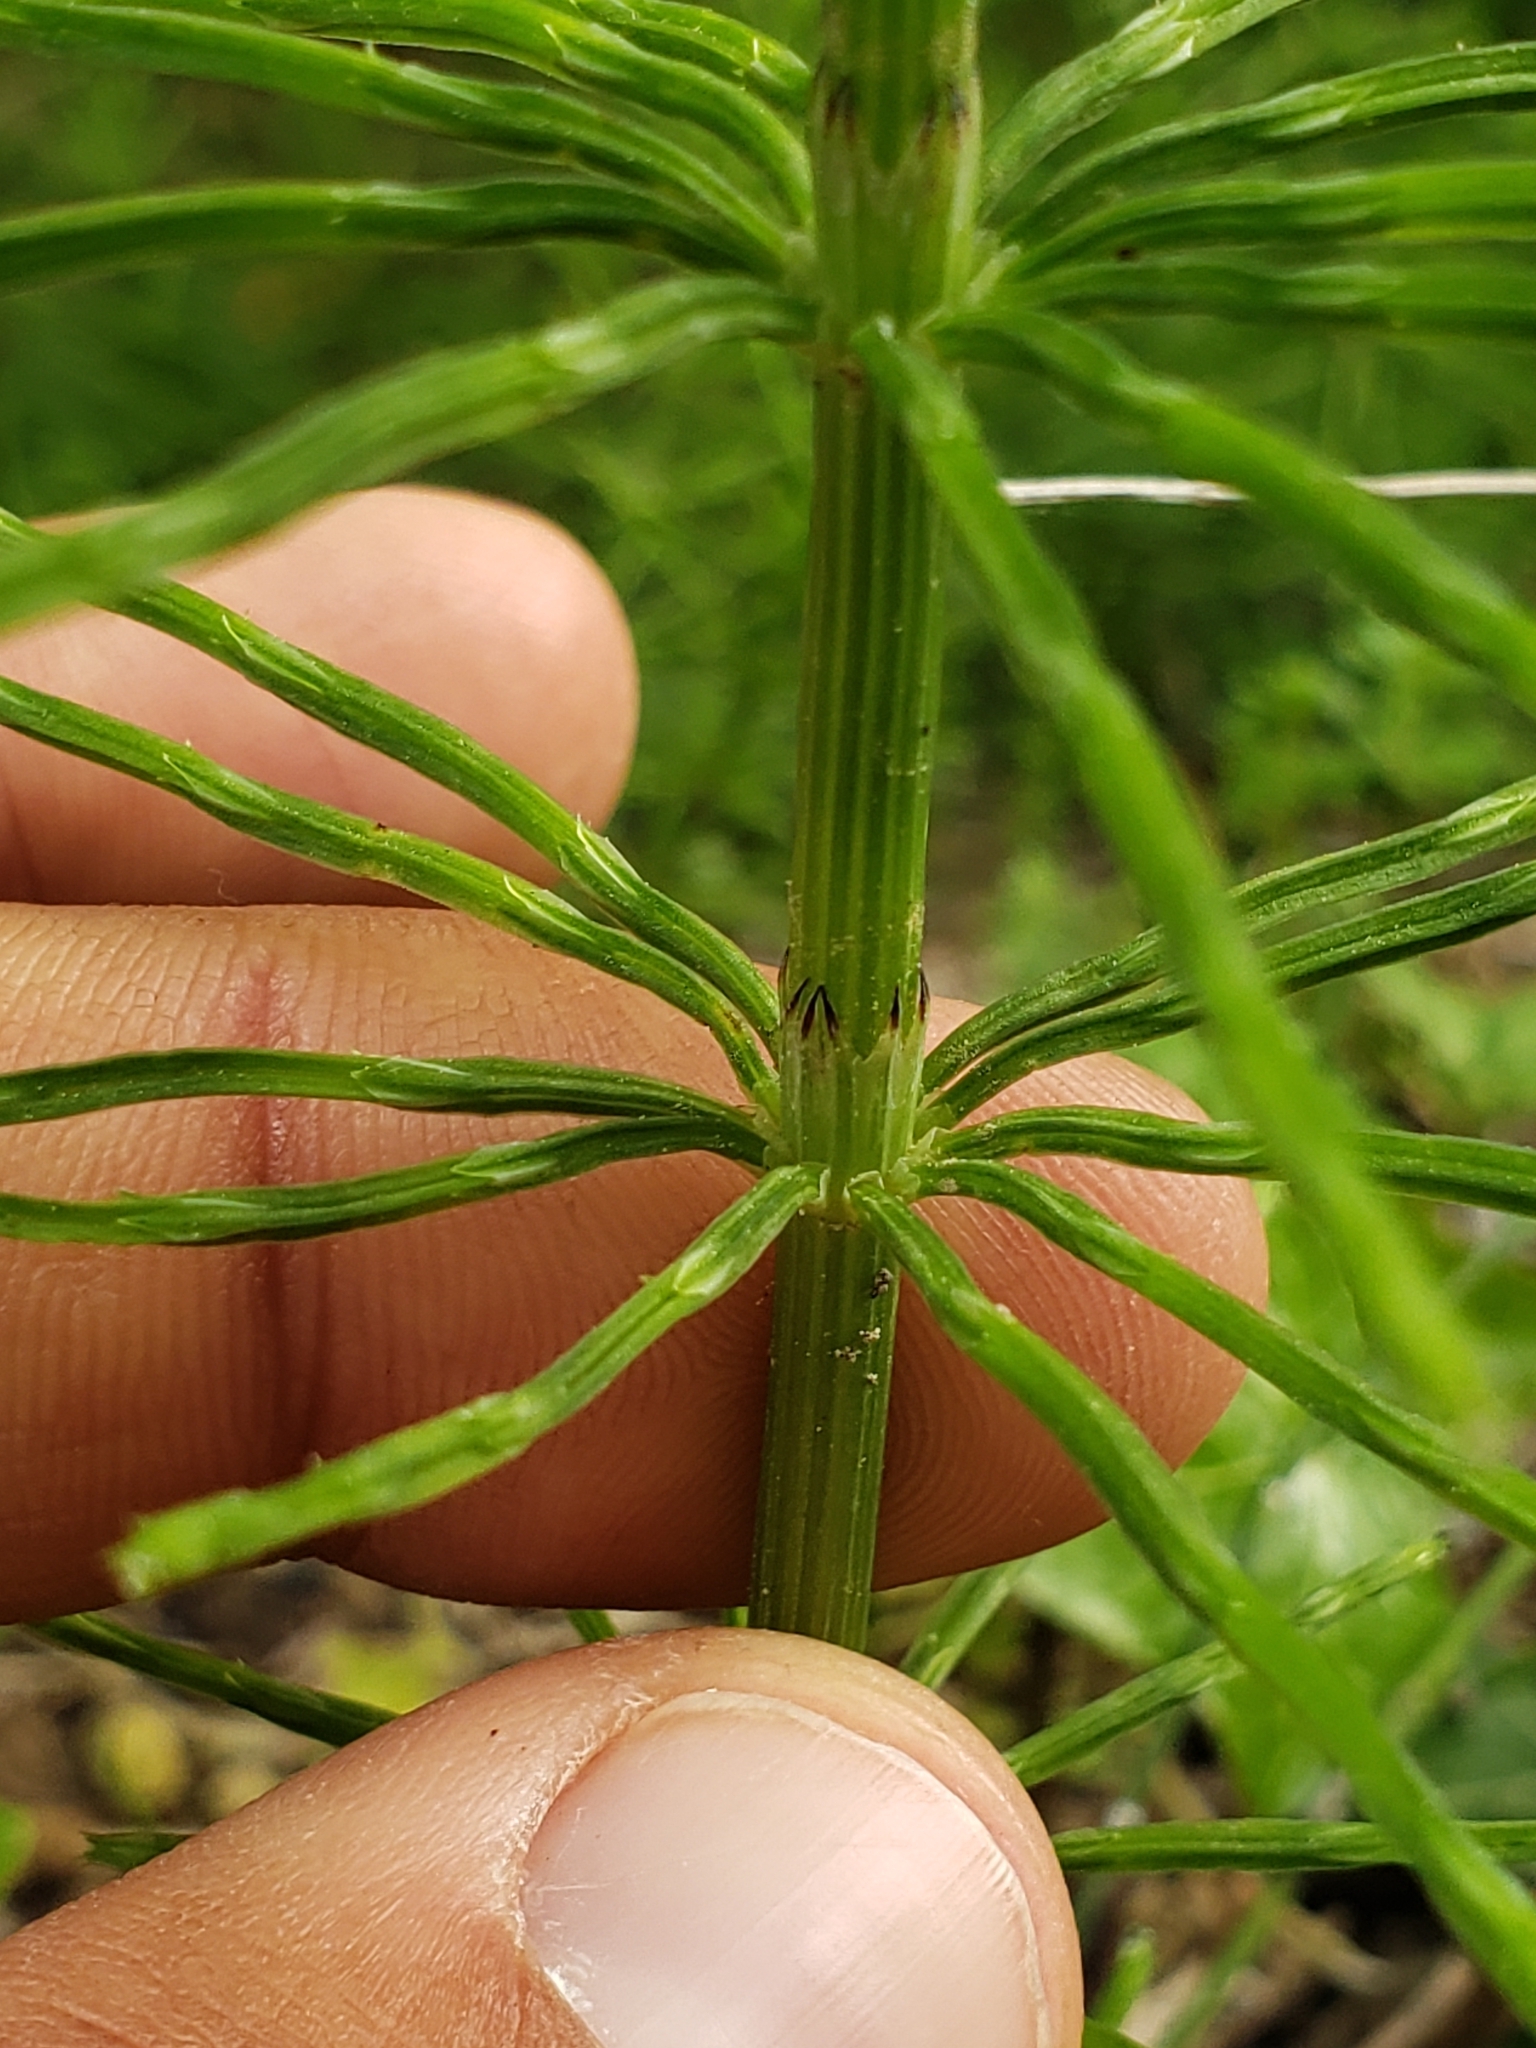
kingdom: Plantae
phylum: Tracheophyta
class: Polypodiopsida
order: Equisetales
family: Equisetaceae
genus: Equisetum
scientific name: Equisetum arvense
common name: Field horsetail
